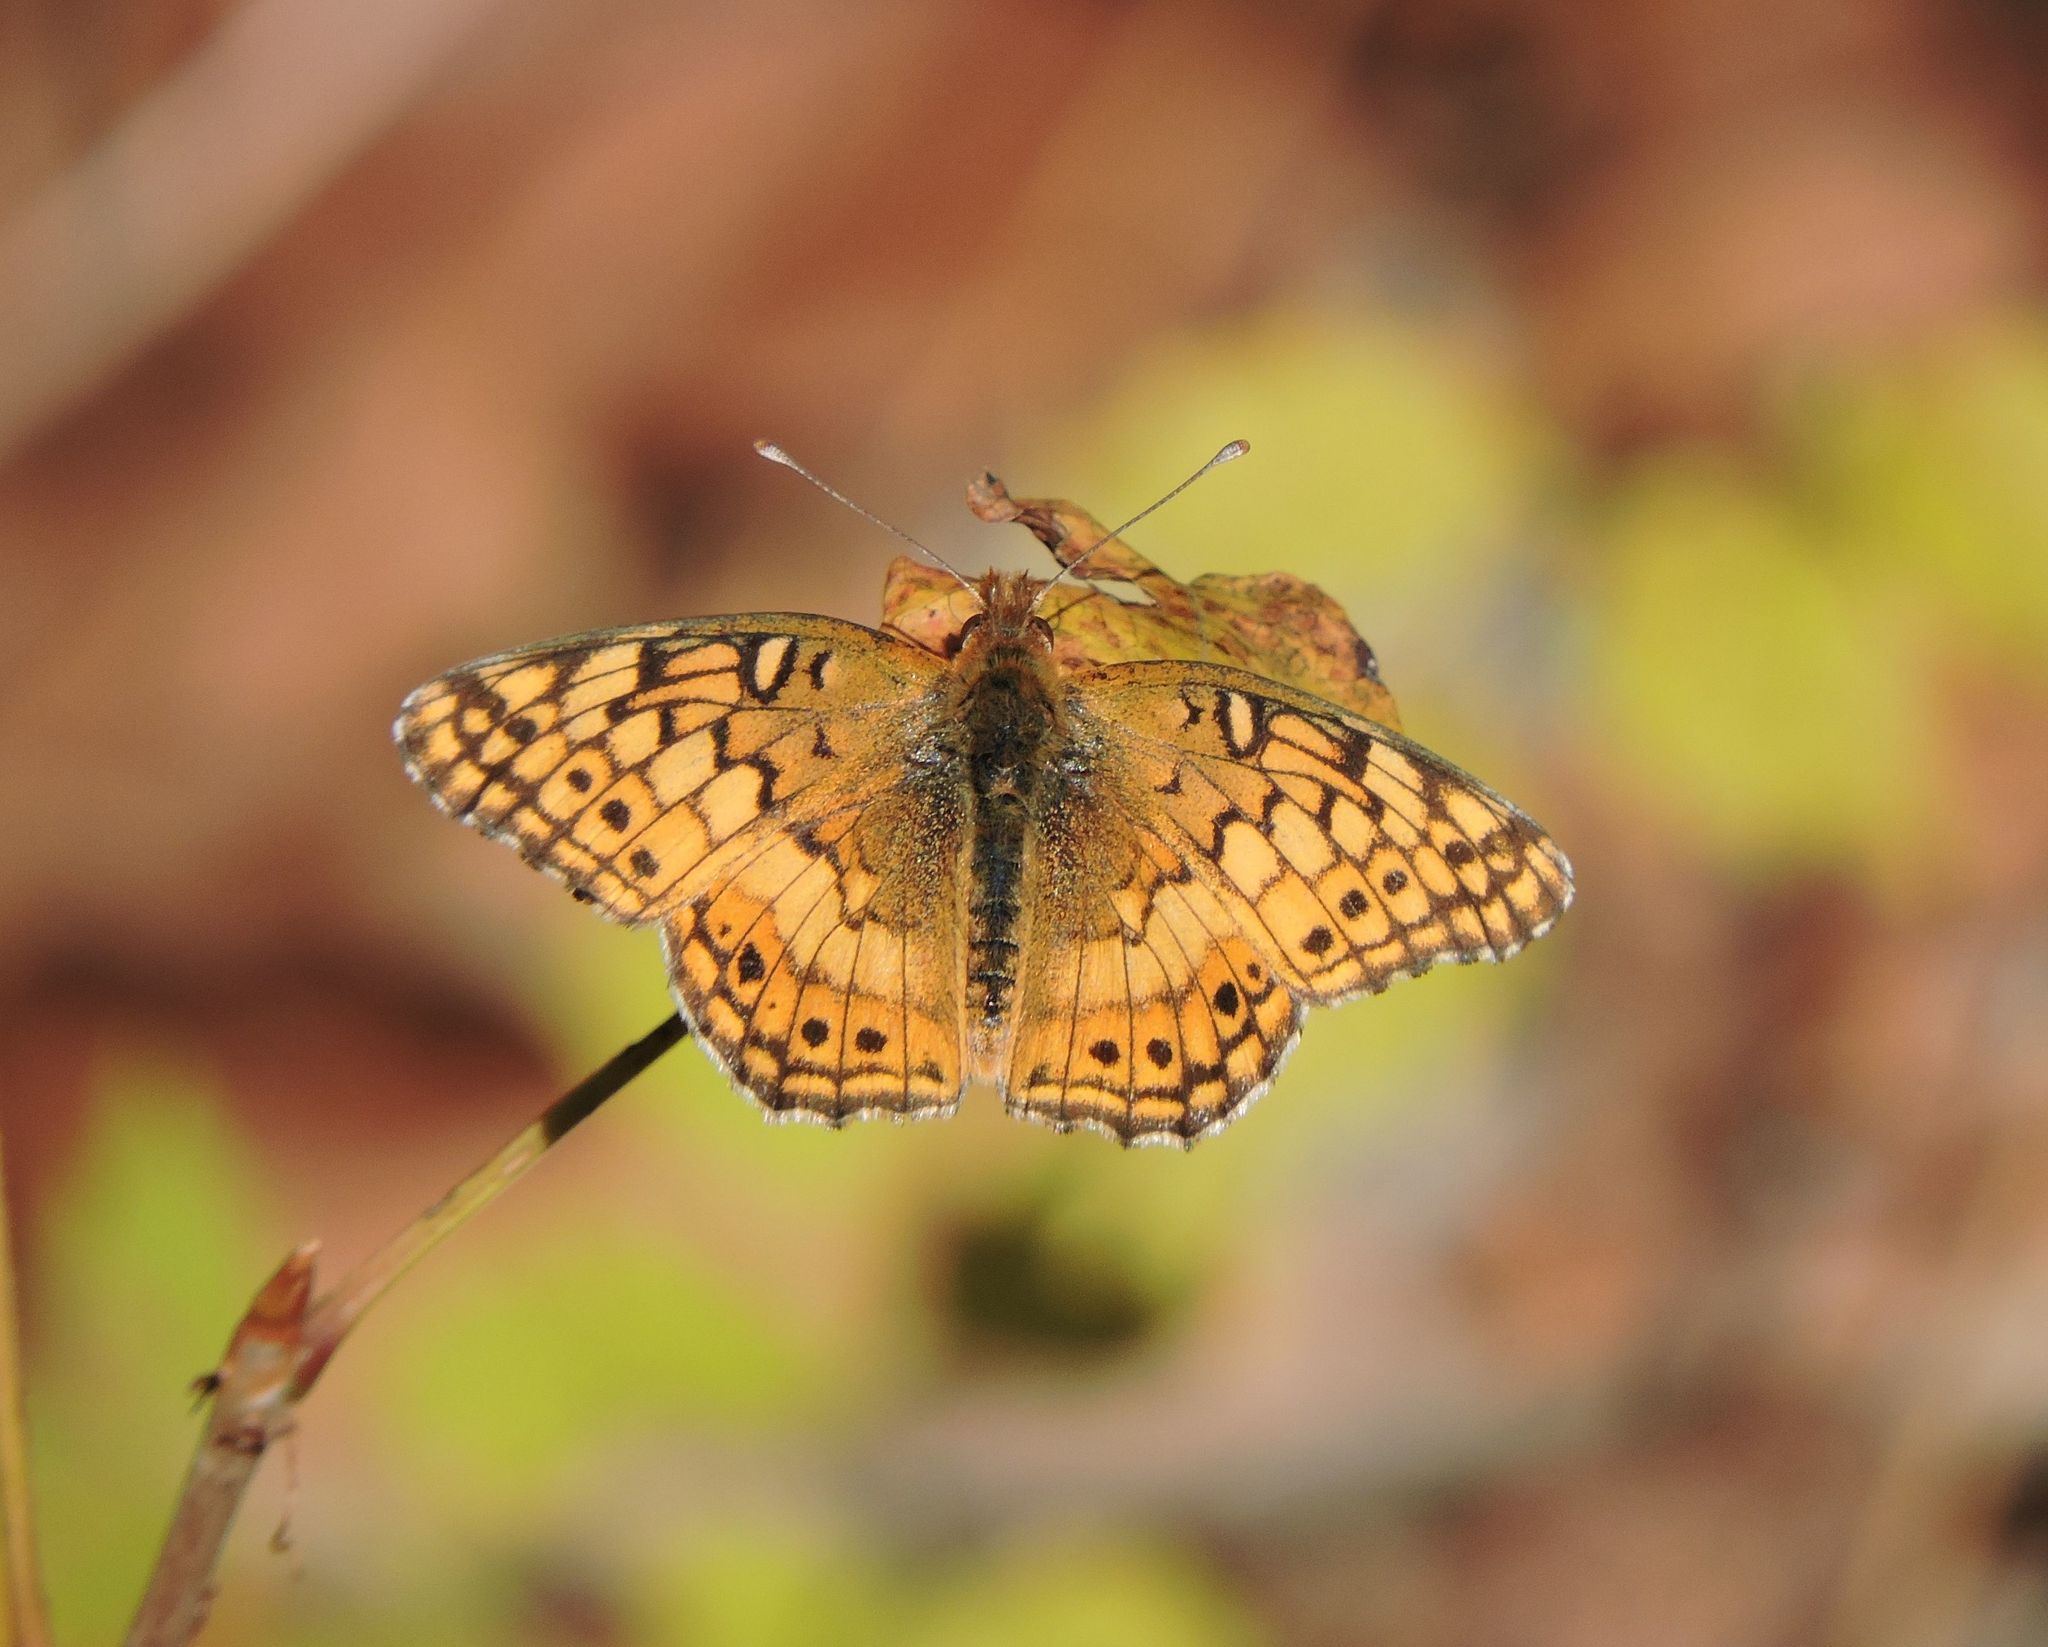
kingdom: Animalia
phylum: Arthropoda
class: Insecta
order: Lepidoptera
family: Nymphalidae
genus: Euptoieta
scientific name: Euptoieta claudia
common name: Variegated fritillary
